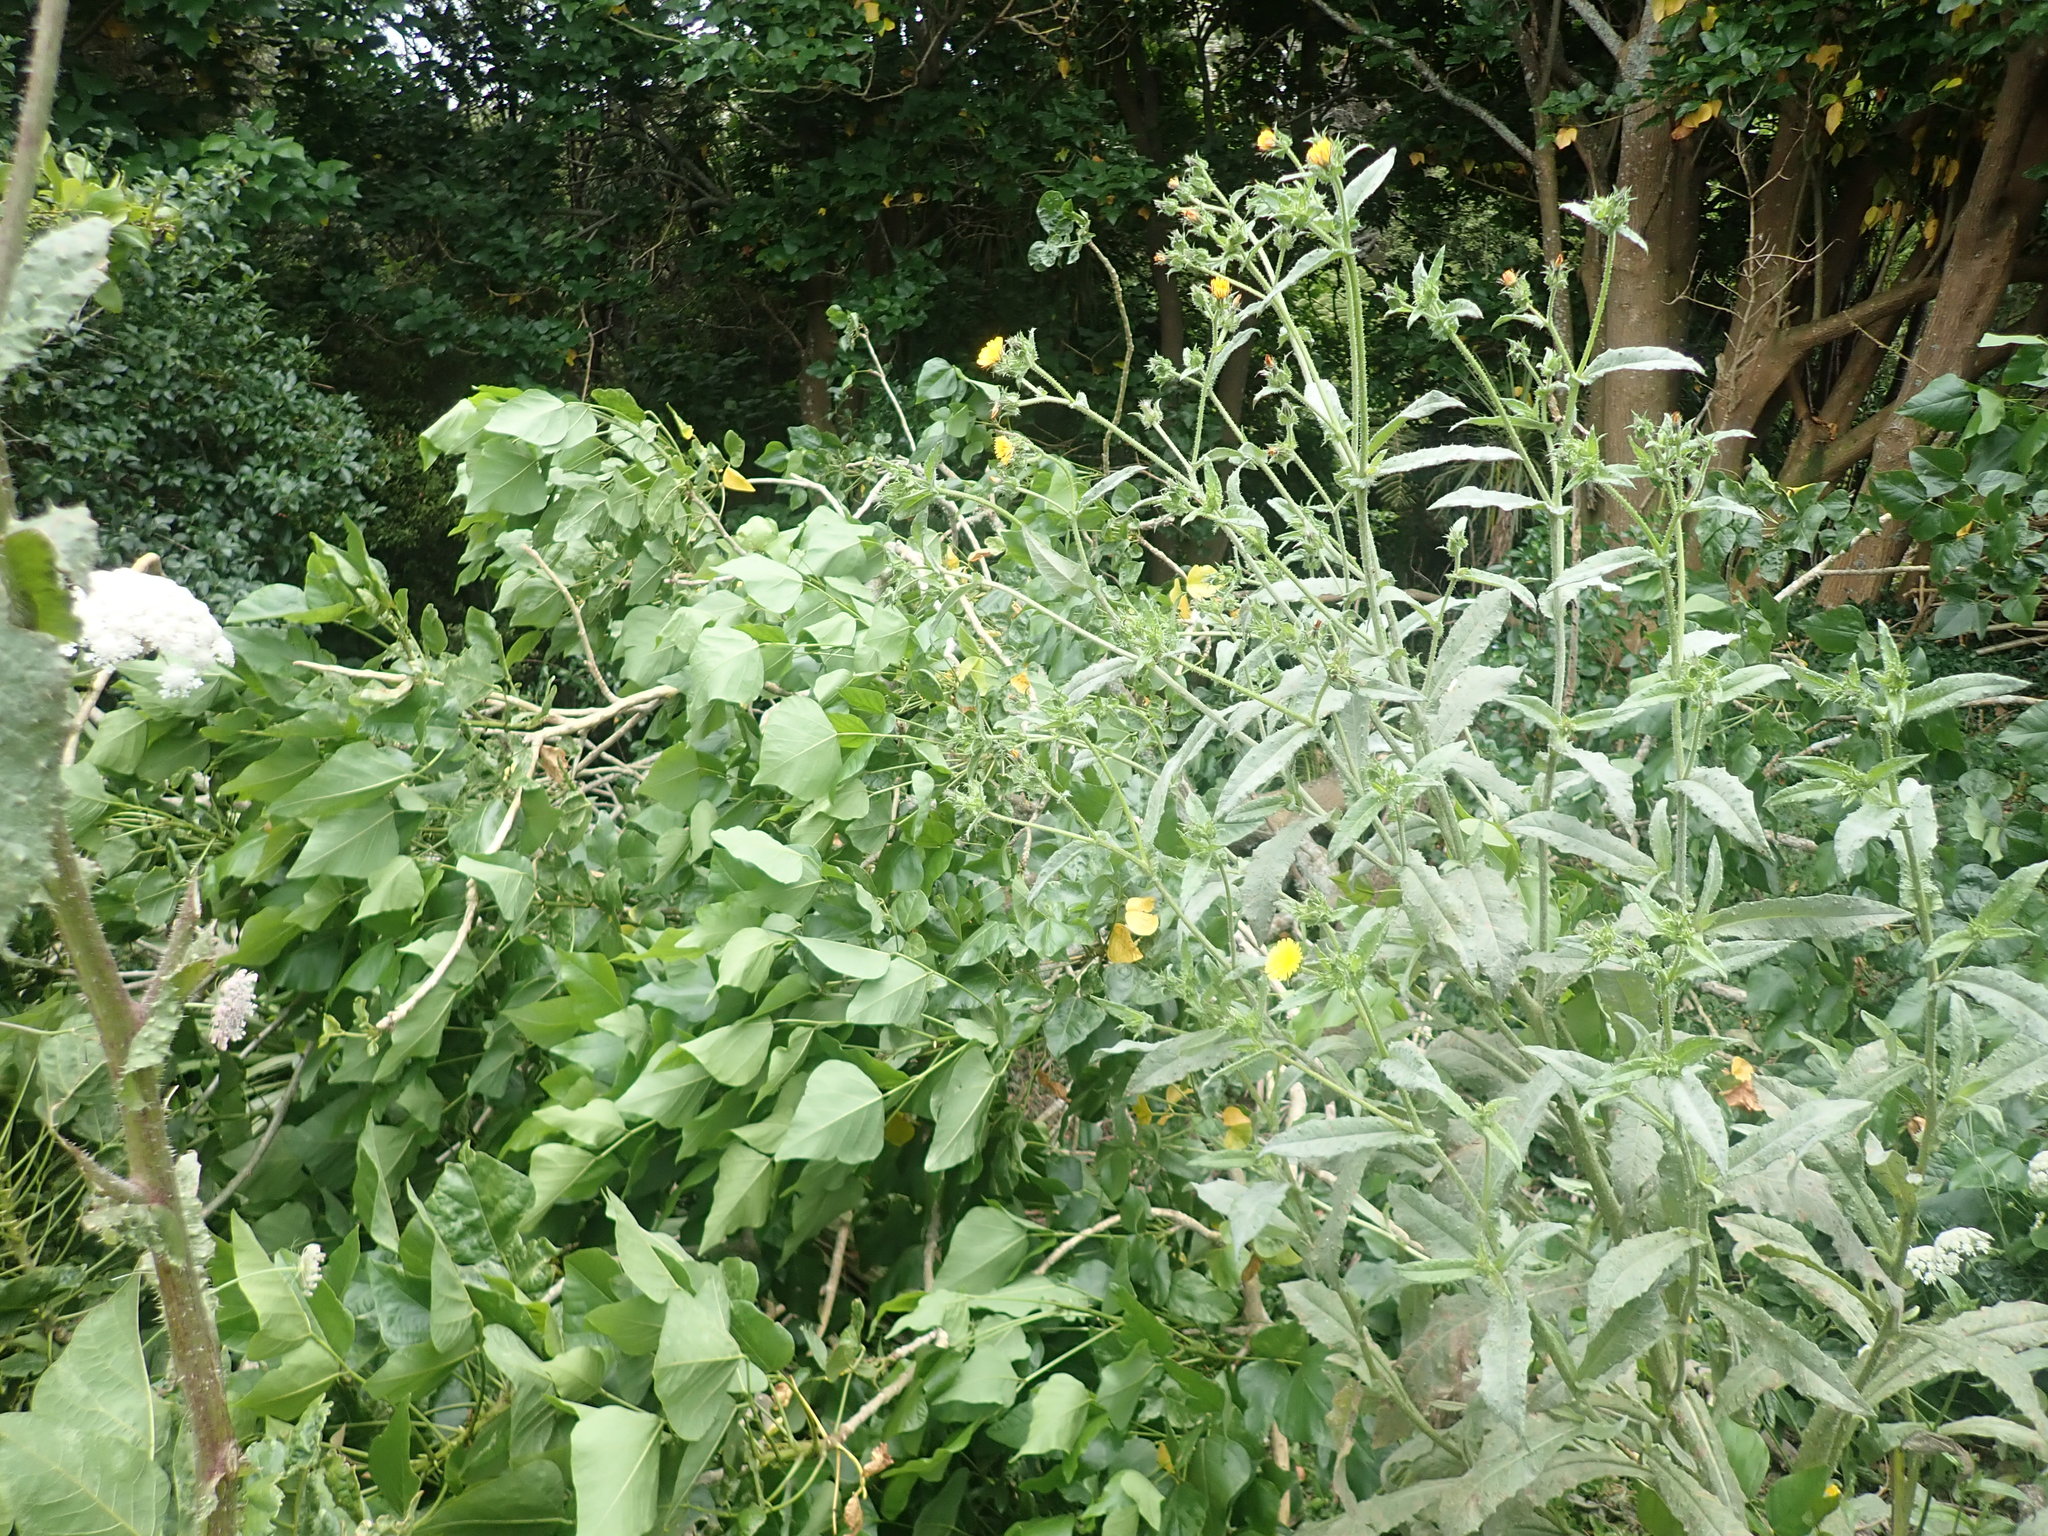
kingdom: Plantae
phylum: Tracheophyta
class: Magnoliopsida
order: Asterales
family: Asteraceae
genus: Helminthotheca
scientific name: Helminthotheca echioides
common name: Ox-tongue
